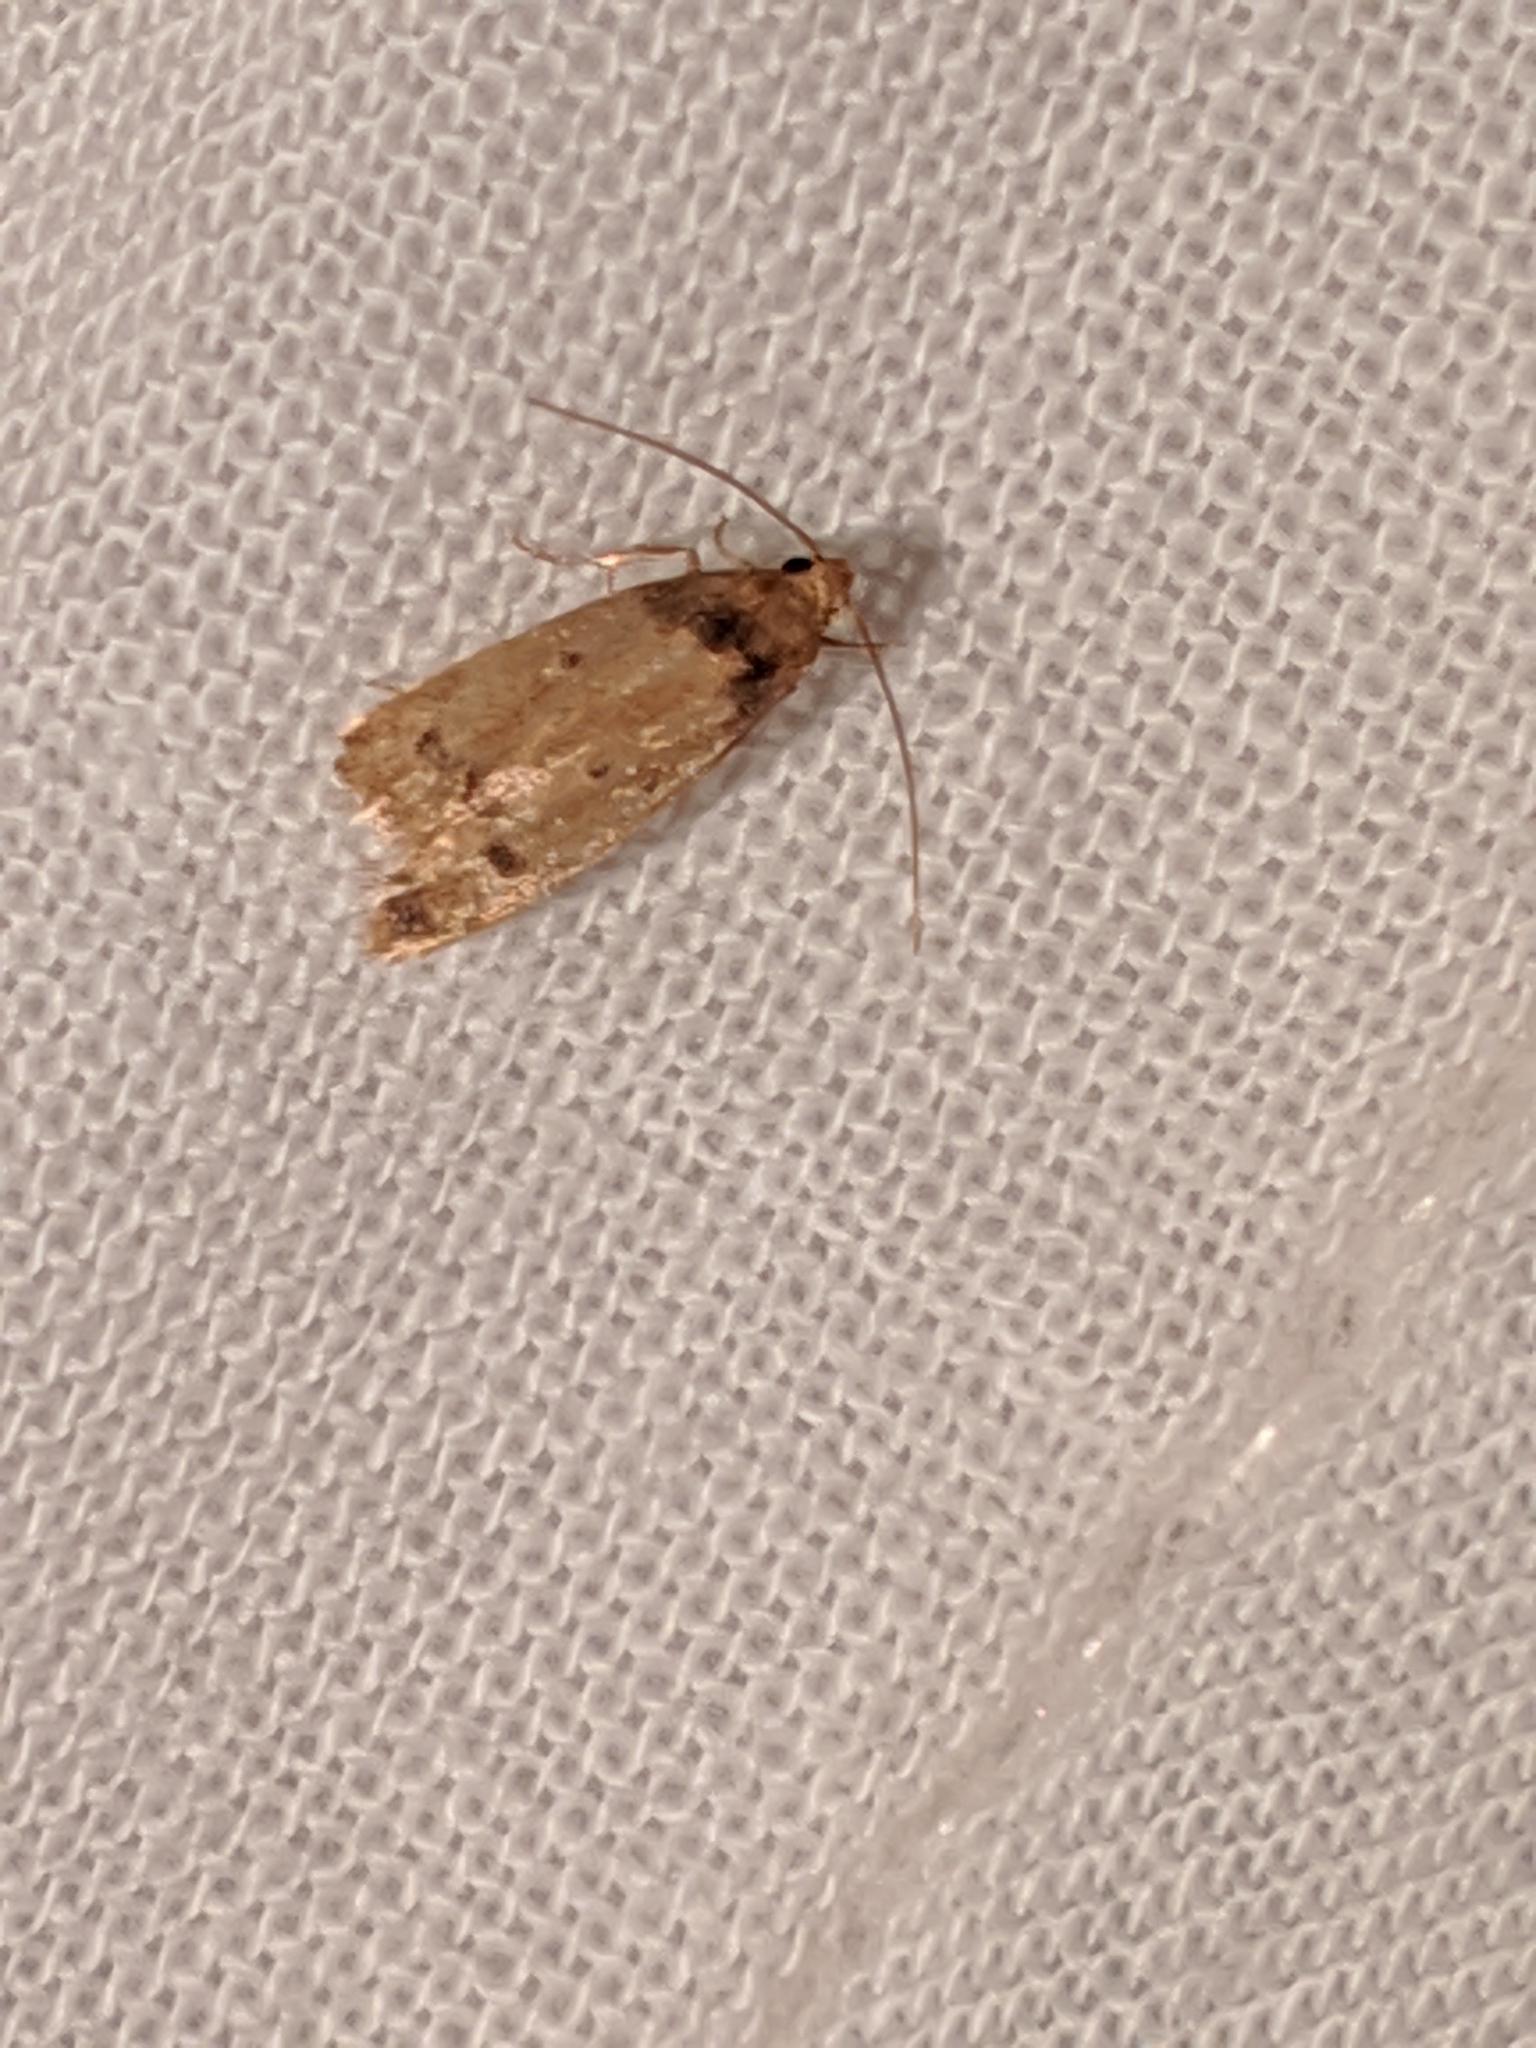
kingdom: Animalia
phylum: Arthropoda
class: Insecta
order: Lepidoptera
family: Autostichidae
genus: Gerdana
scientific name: Gerdana caritella
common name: Gerdana moth
